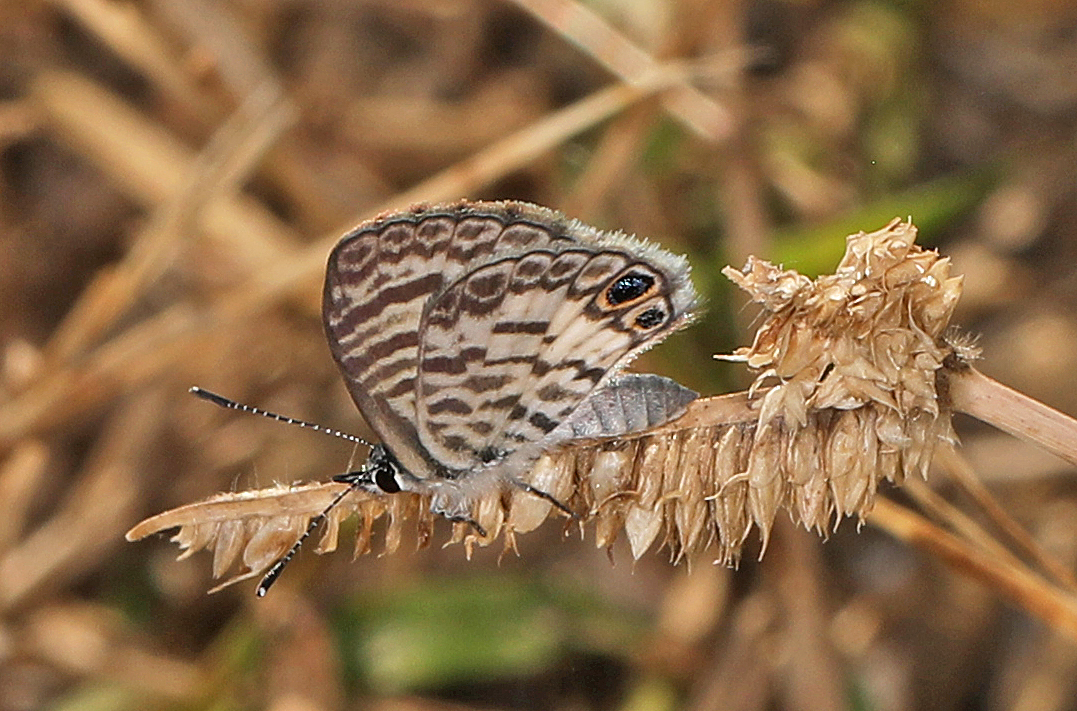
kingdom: Animalia
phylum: Arthropoda
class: Insecta
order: Lepidoptera
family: Lycaenidae
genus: Leptotes
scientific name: Leptotes cassius
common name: Cassius blue
